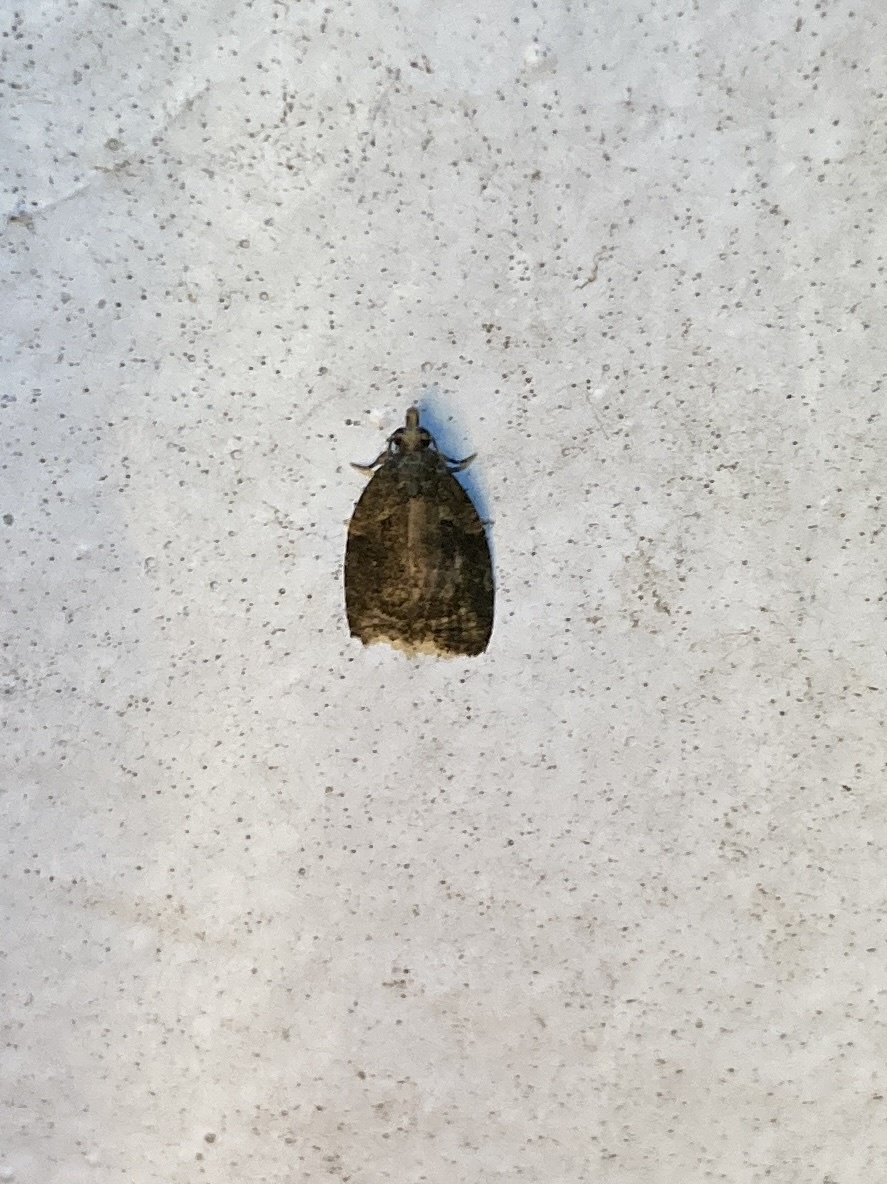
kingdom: Animalia
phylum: Arthropoda
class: Insecta
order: Lepidoptera
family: Tortricidae
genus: Capua
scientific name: Capua intractana
